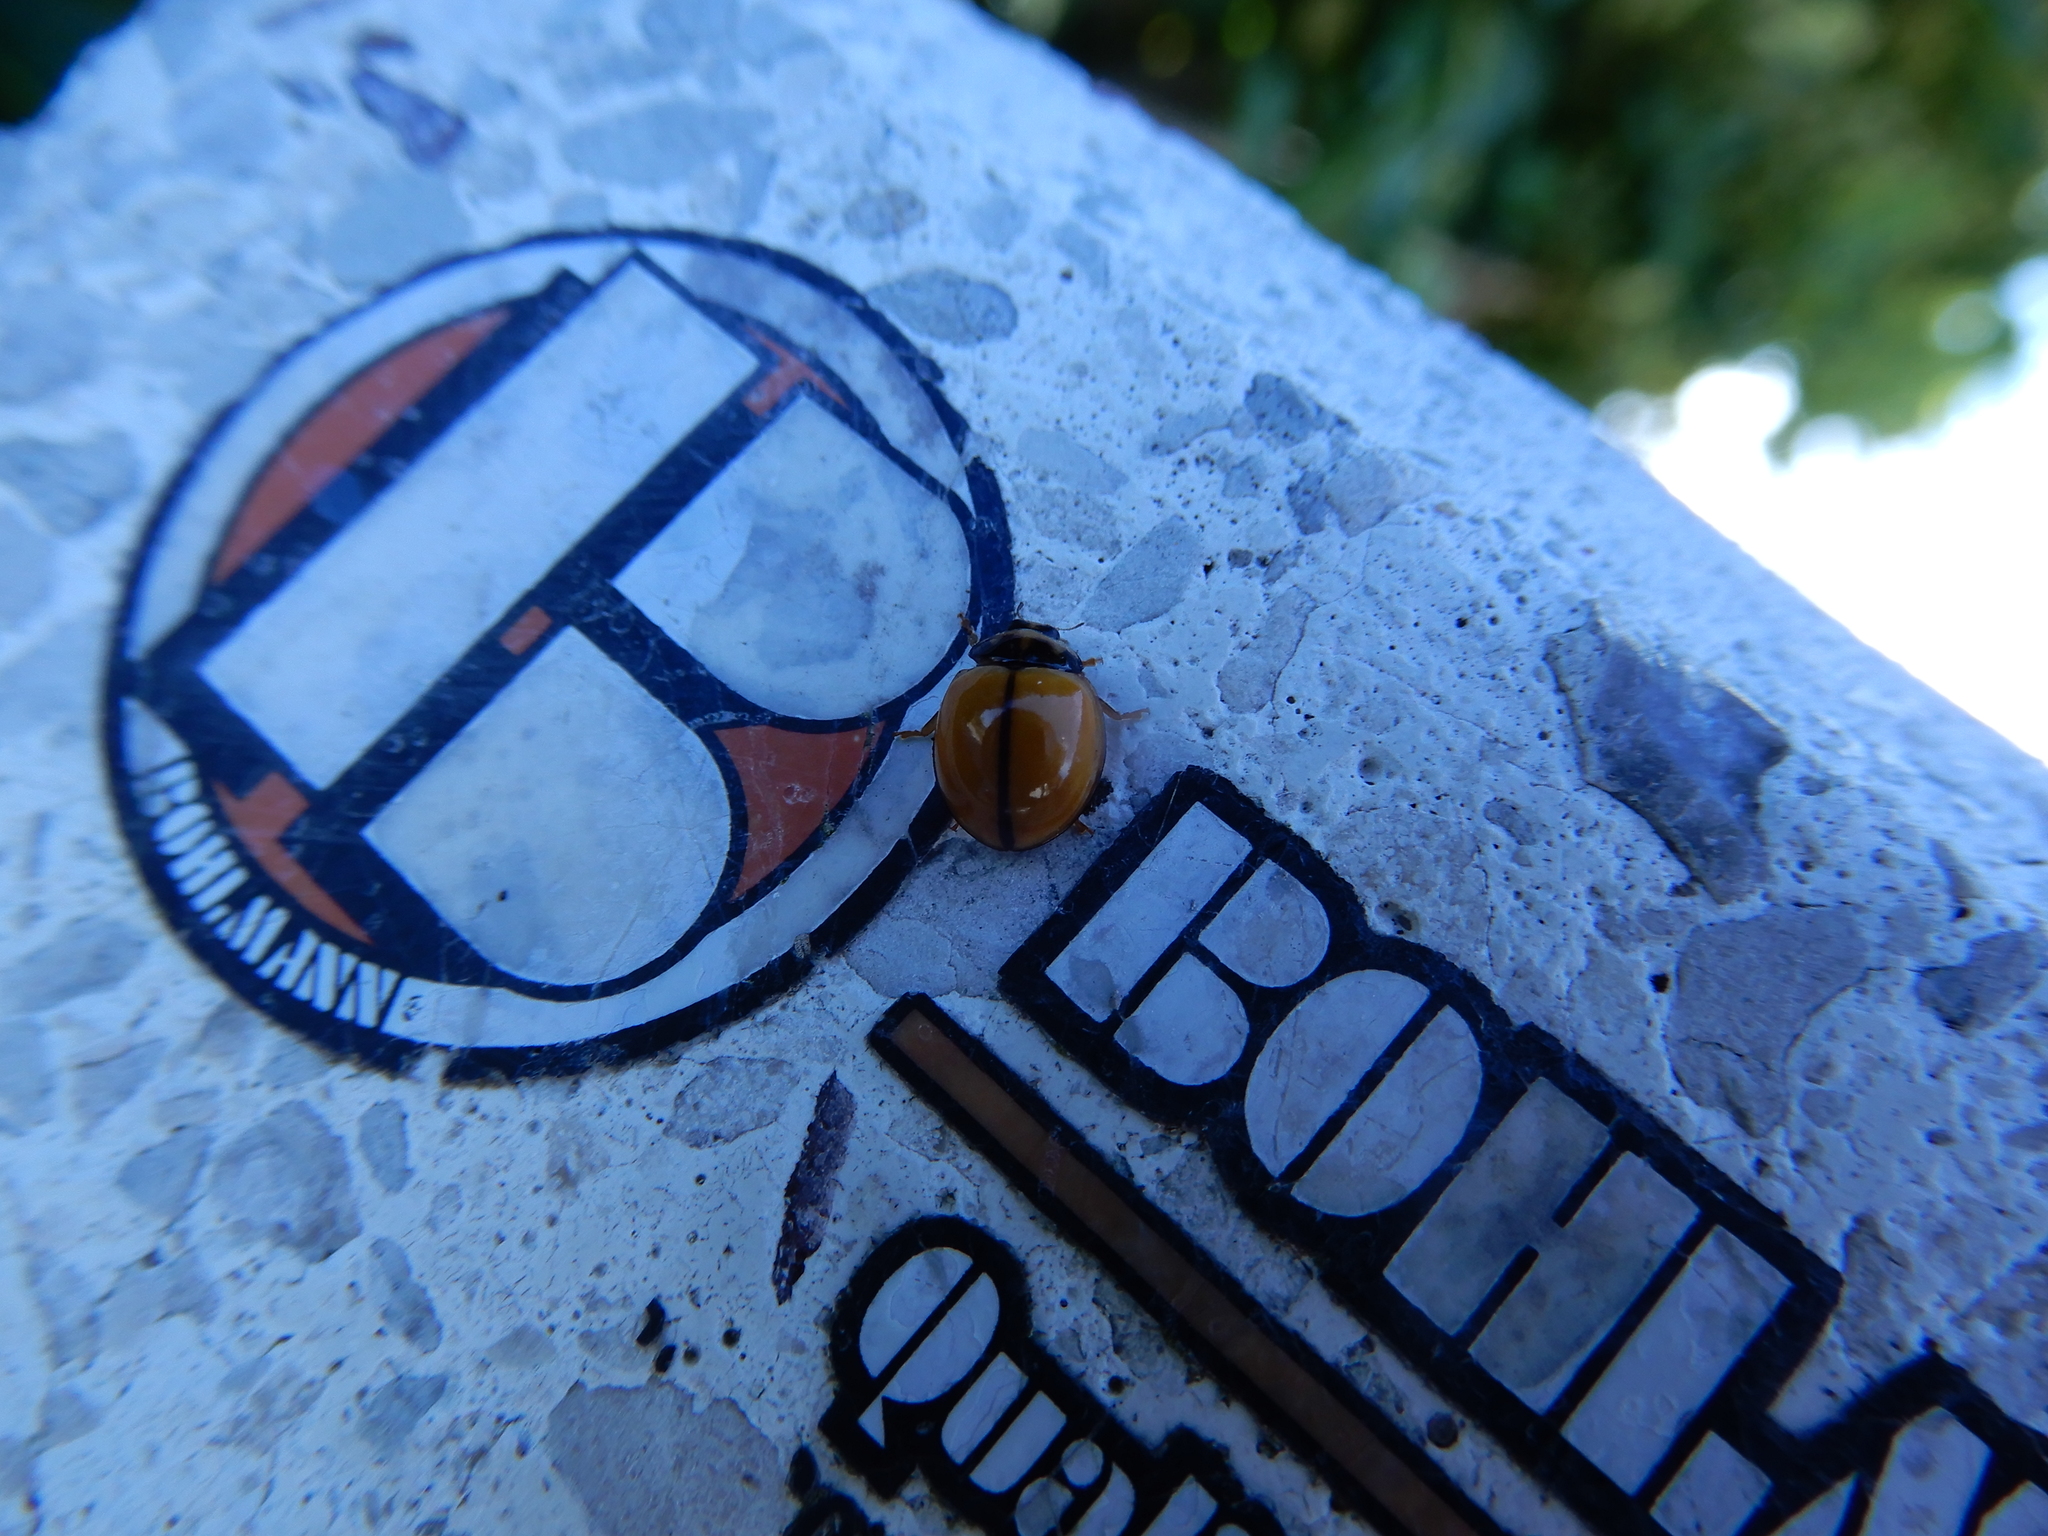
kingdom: Animalia
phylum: Arthropoda
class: Insecta
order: Coleoptera
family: Coccinellidae
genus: Coelophora
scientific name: Coelophora inaequalis
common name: Common australian lady beetle
